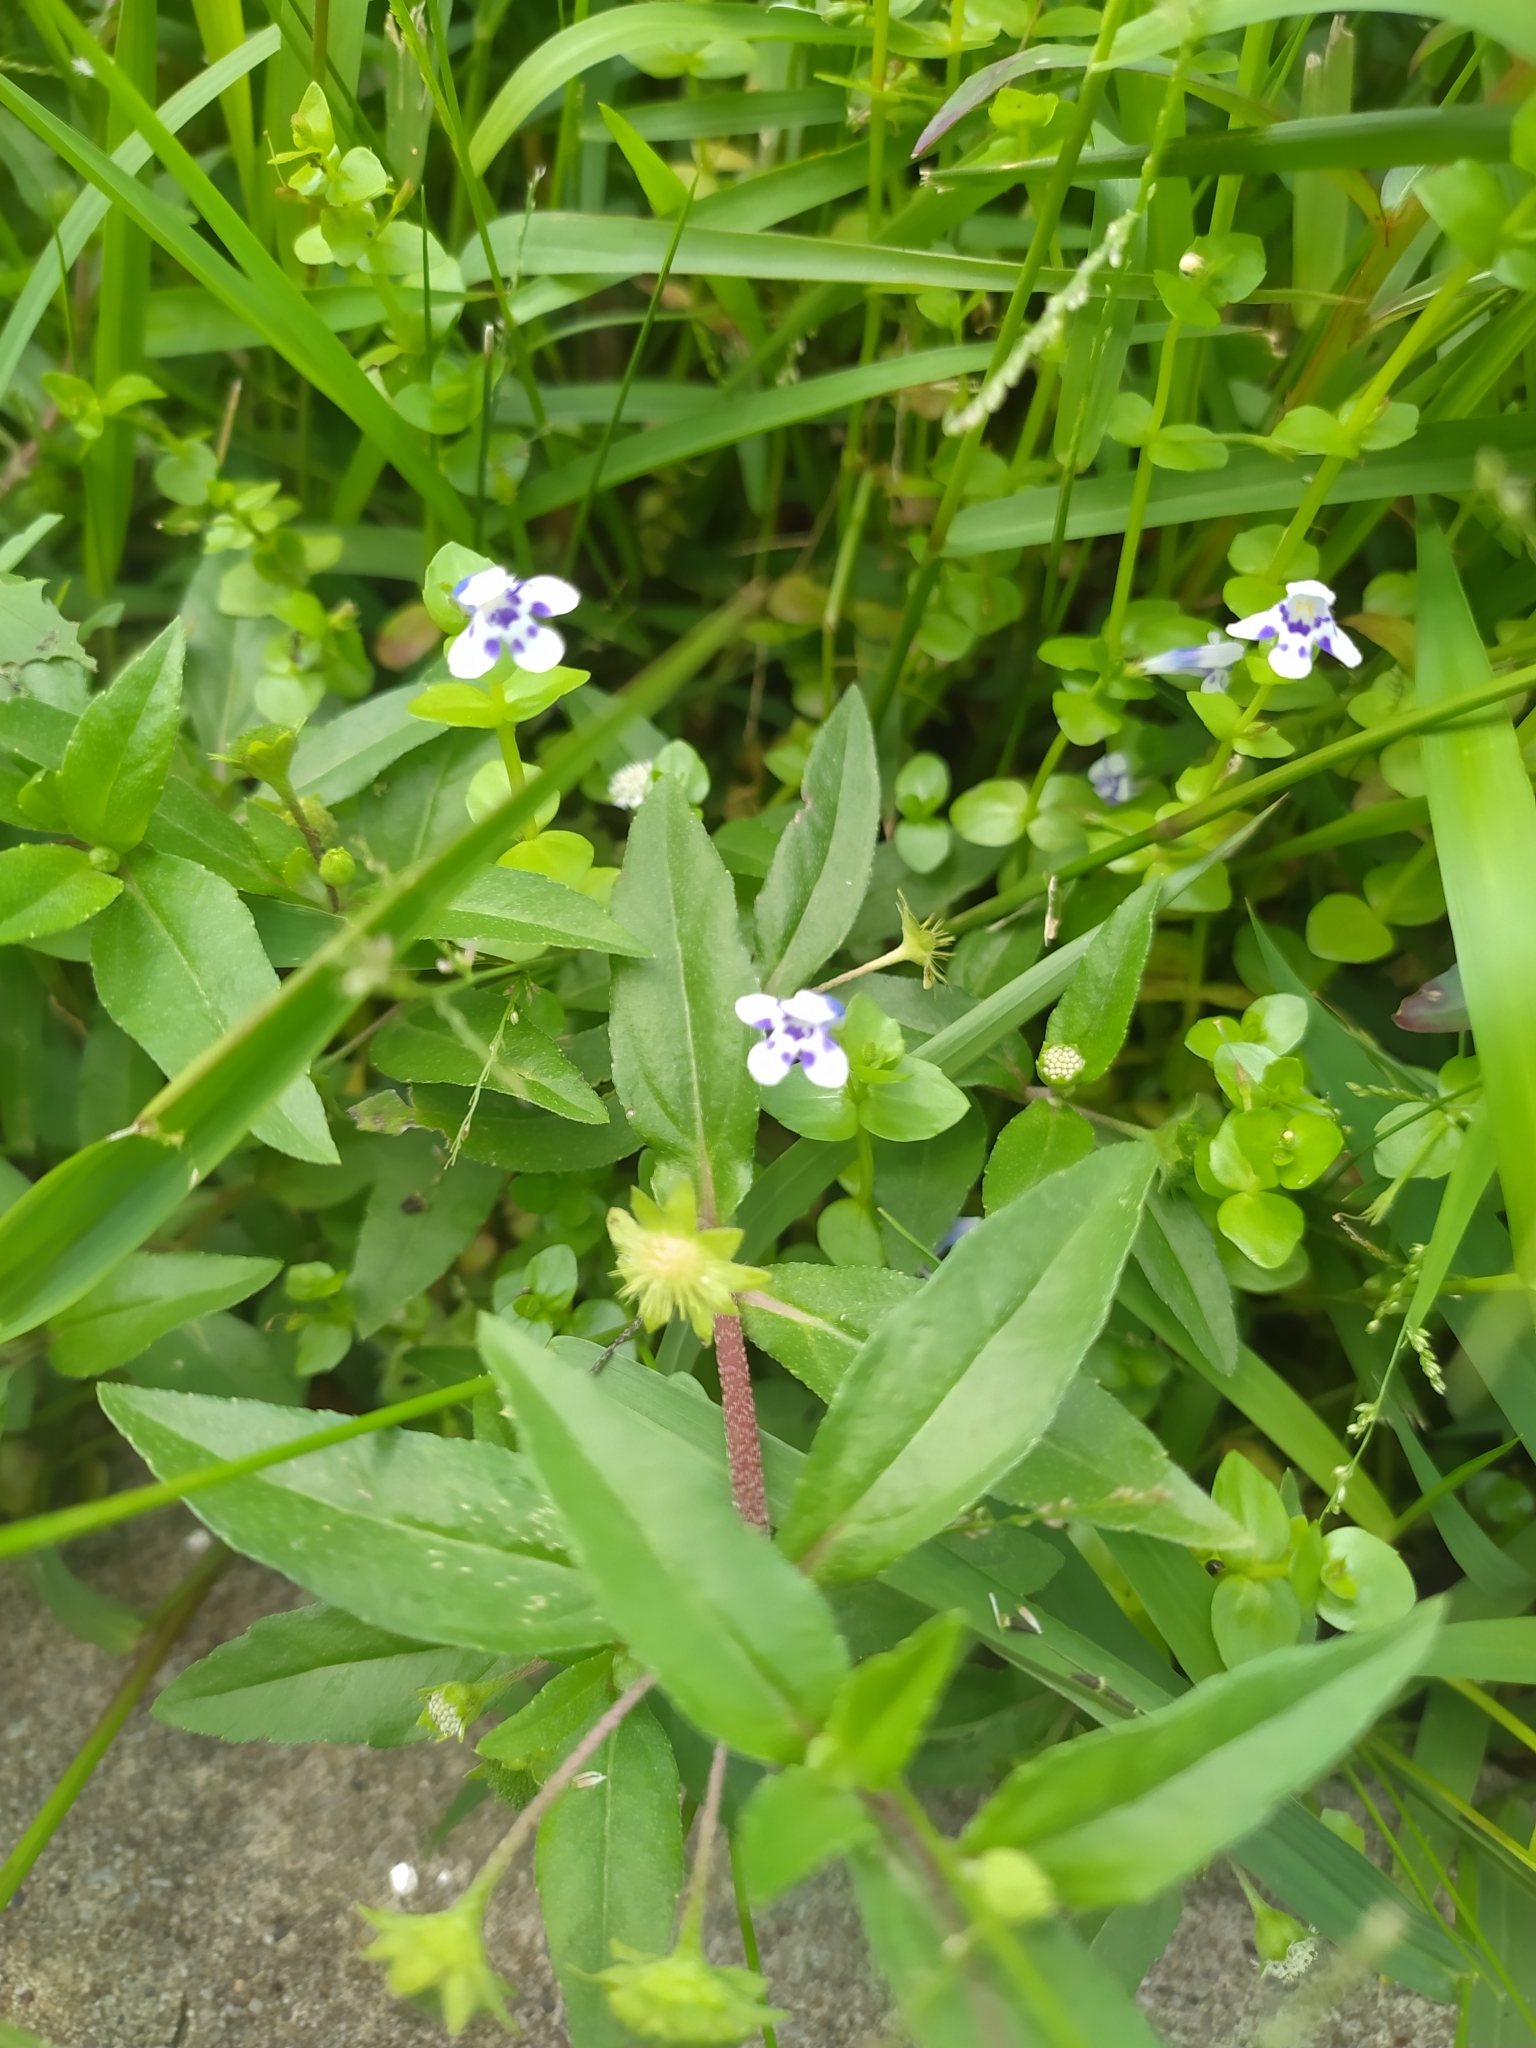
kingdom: Plantae
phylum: Tracheophyta
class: Magnoliopsida
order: Lamiales
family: Linderniaceae
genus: Lindernia
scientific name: Lindernia rotundifolia
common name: Baby’s tears
